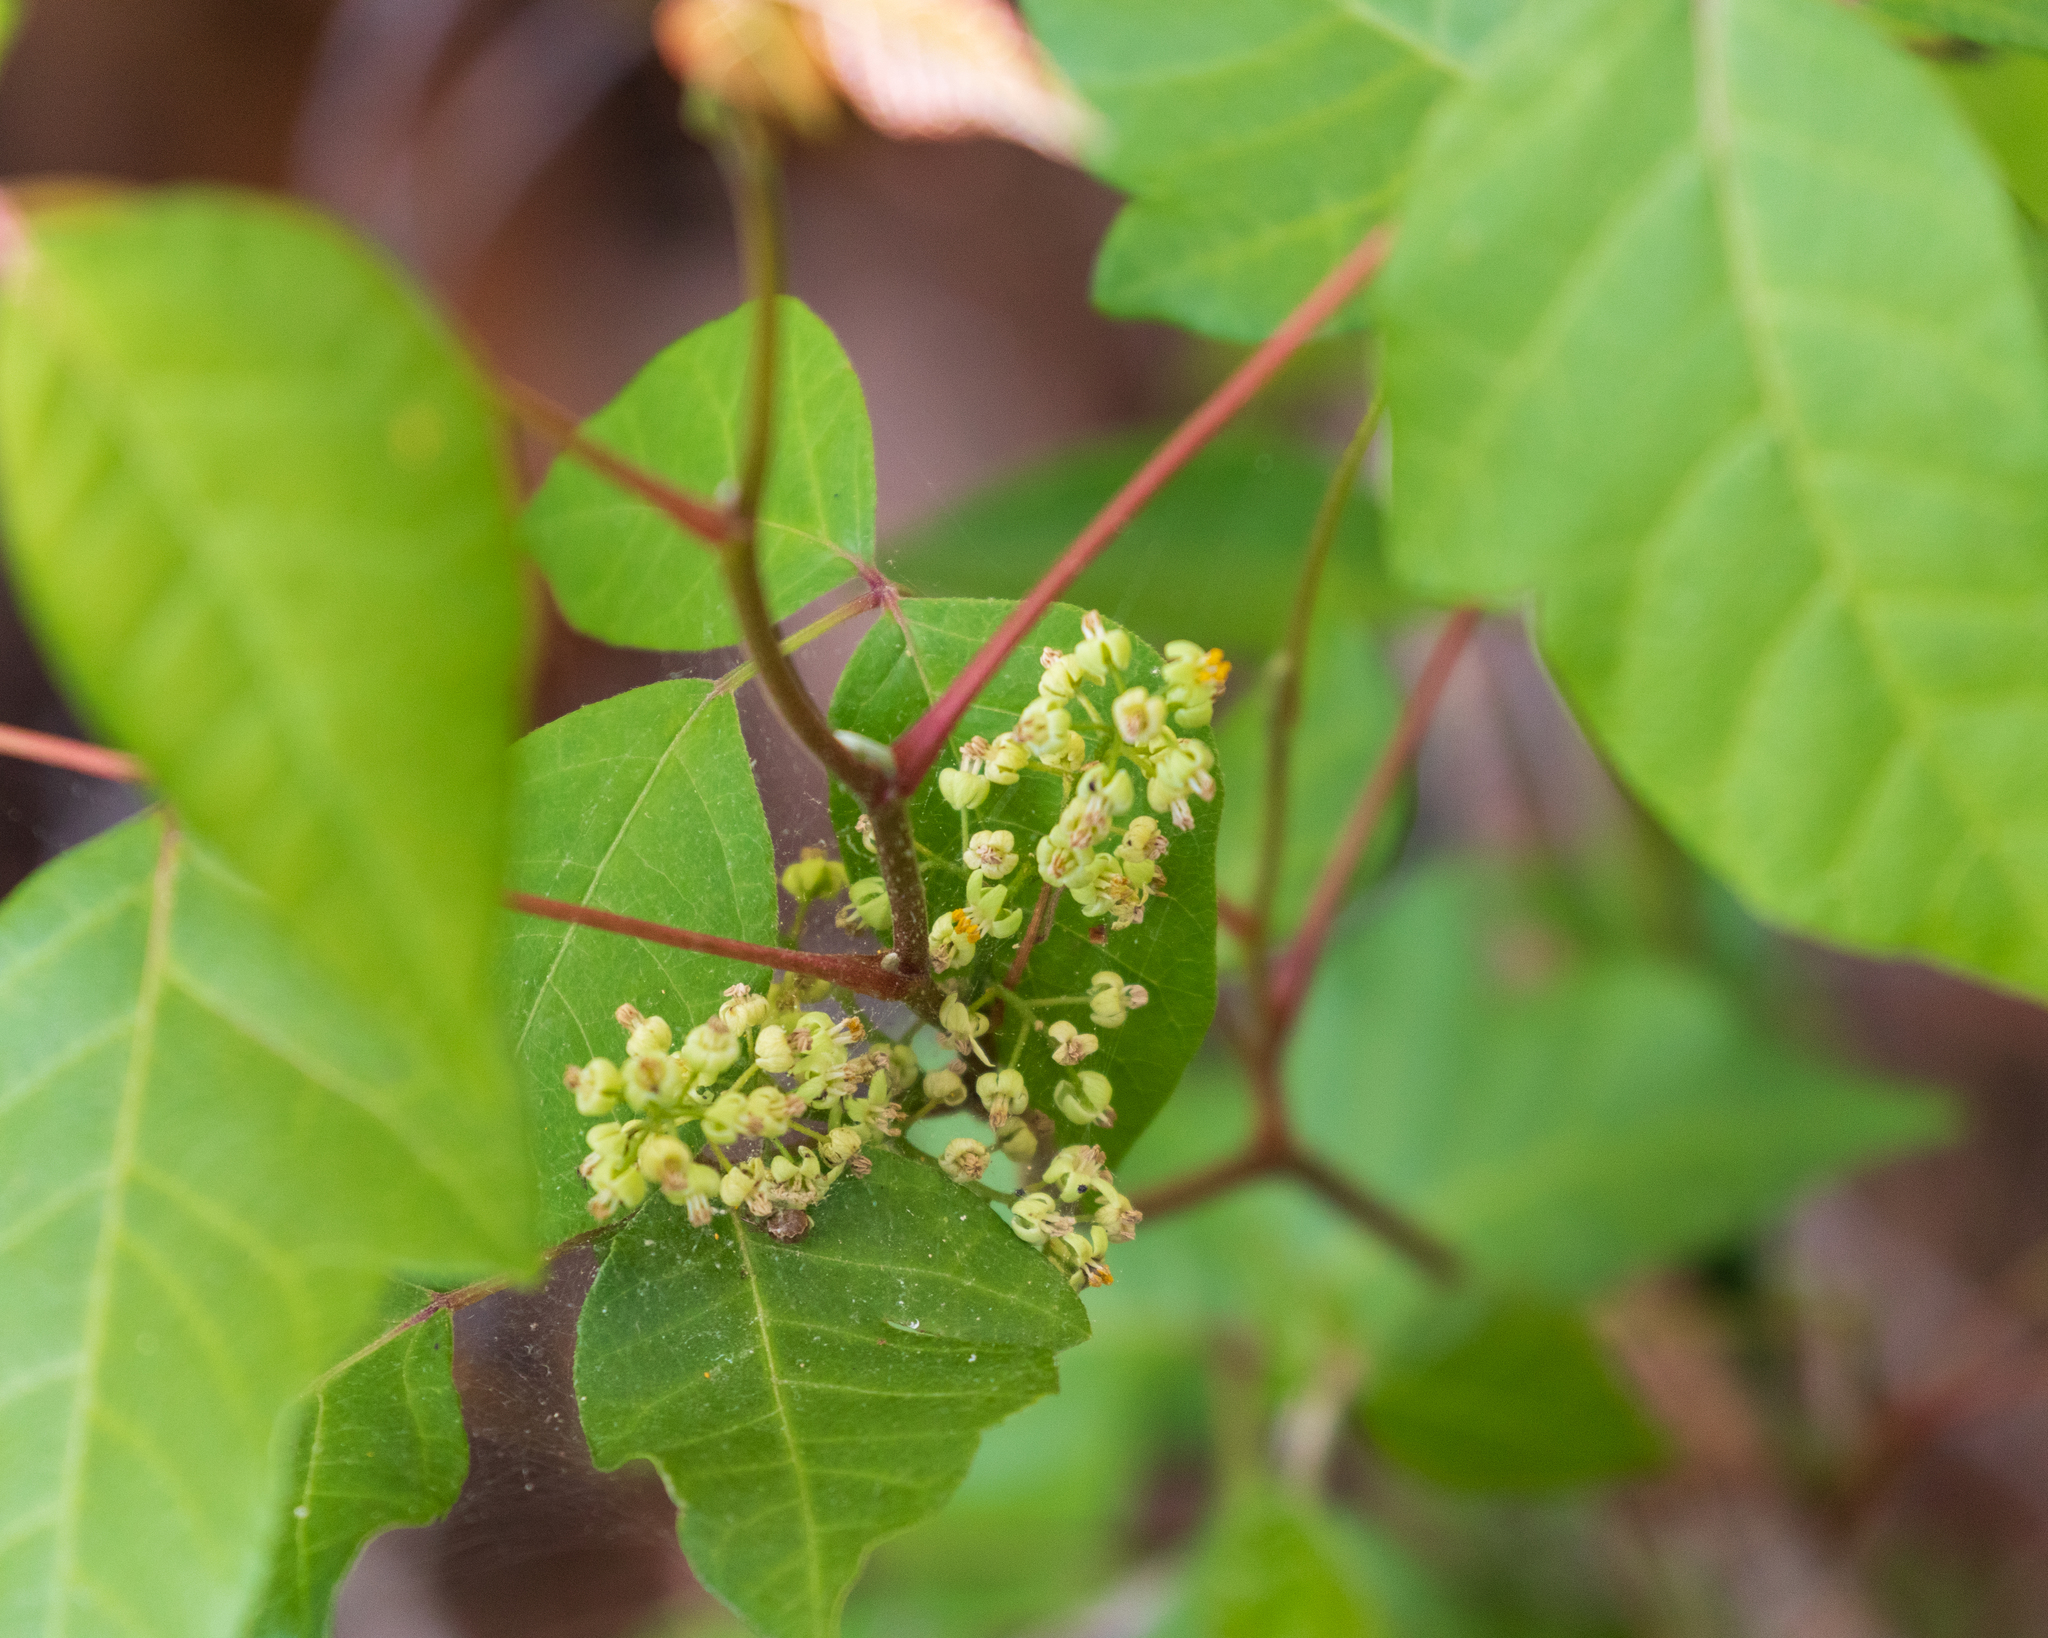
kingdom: Plantae
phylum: Tracheophyta
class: Magnoliopsida
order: Sapindales
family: Anacardiaceae
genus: Toxicodendron
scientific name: Toxicodendron radicans
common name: Poison ivy
